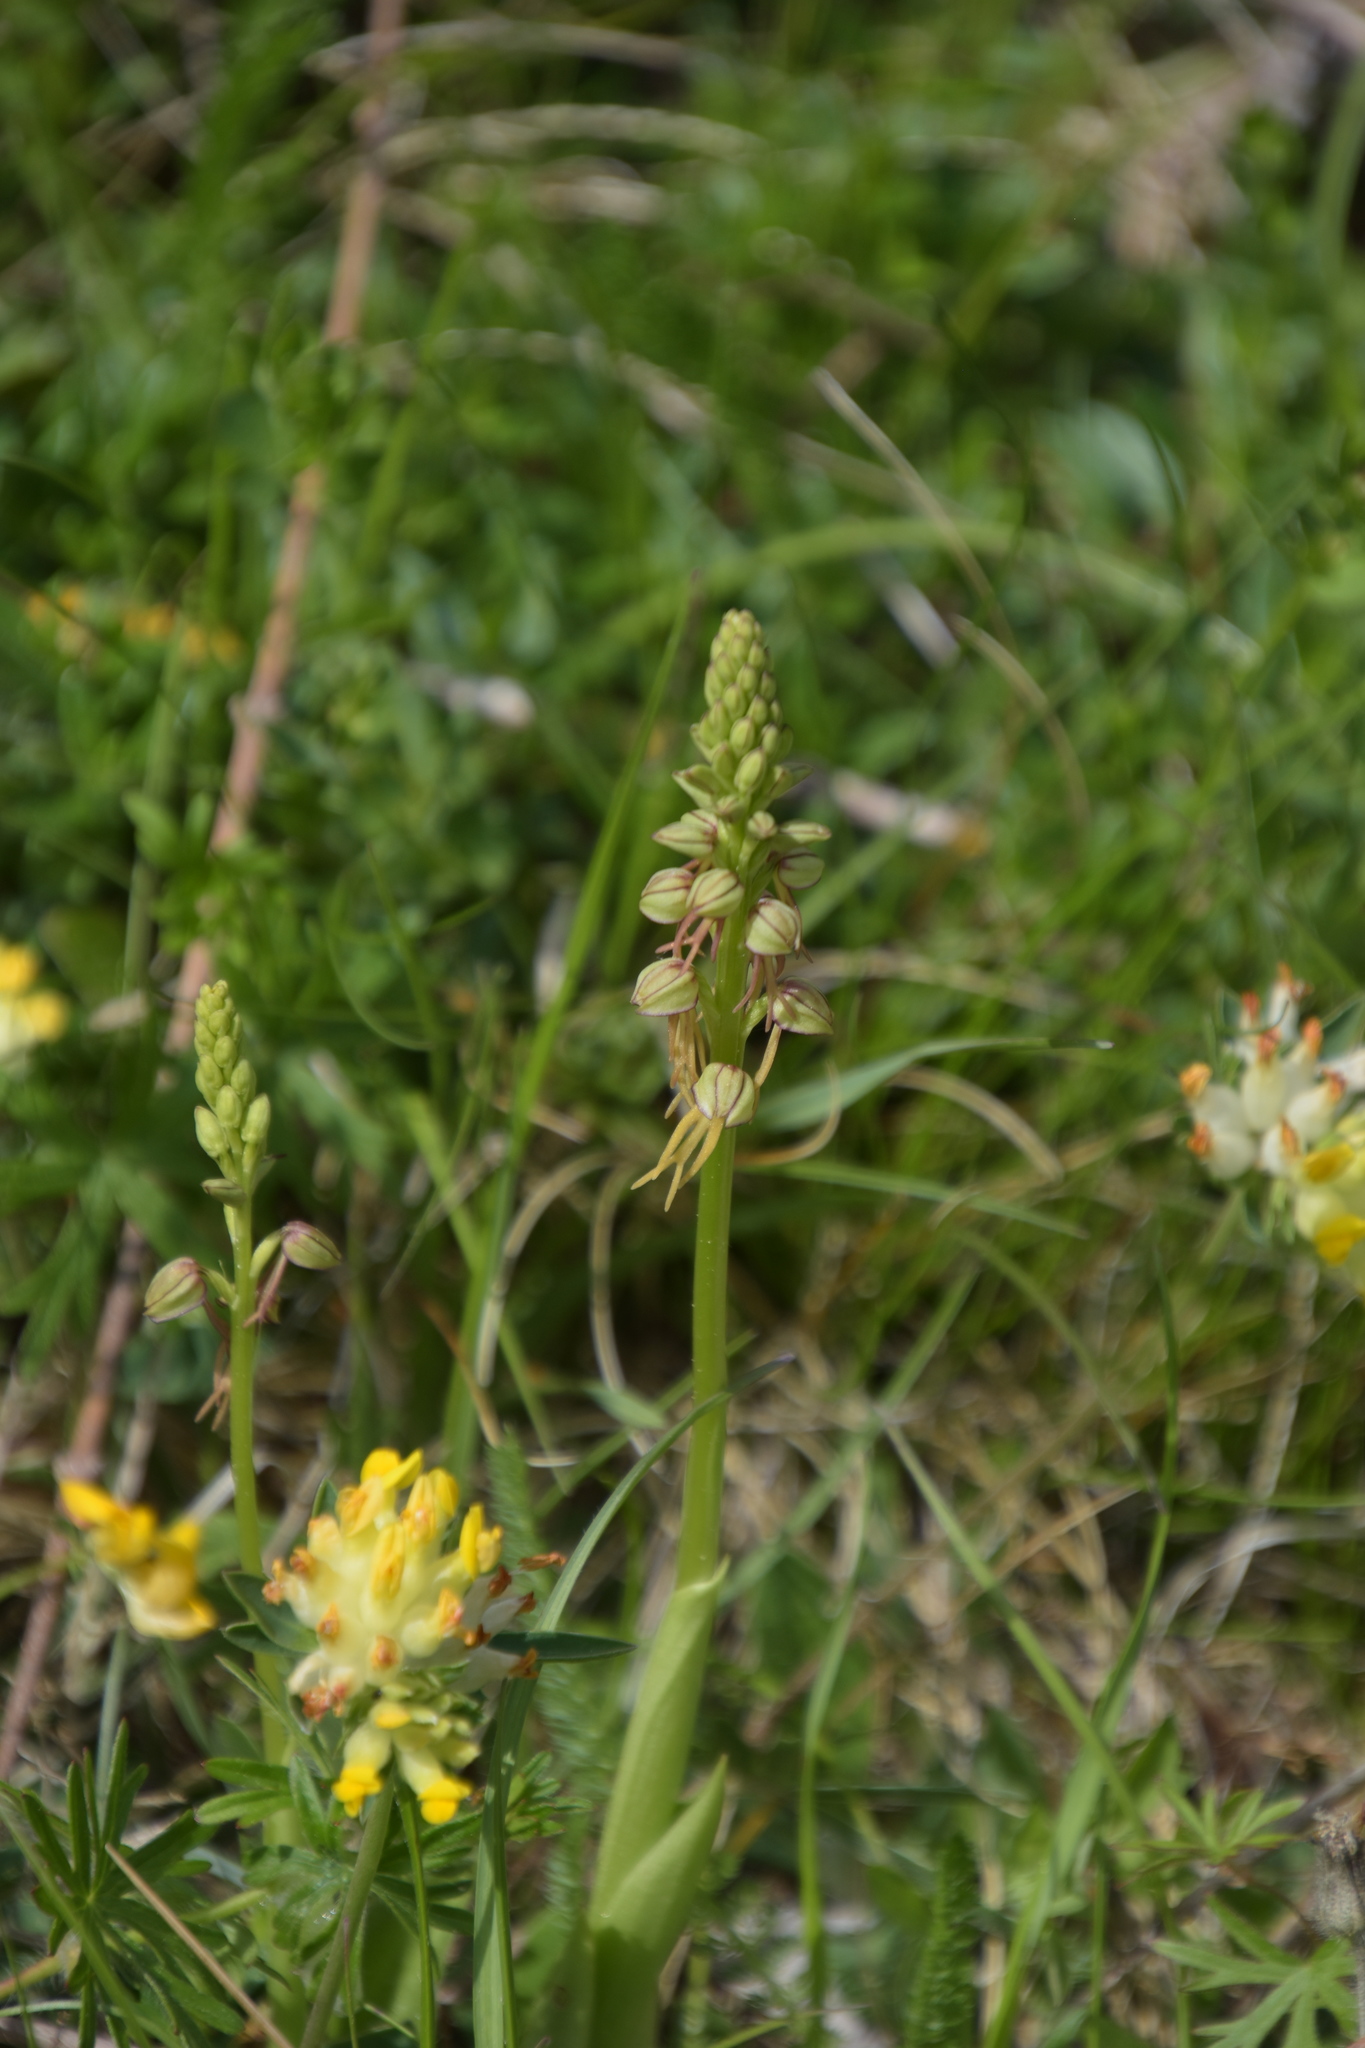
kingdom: Plantae
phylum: Tracheophyta
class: Liliopsida
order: Asparagales
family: Orchidaceae
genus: Orchis
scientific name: Orchis anthropophora
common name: Man orchid
